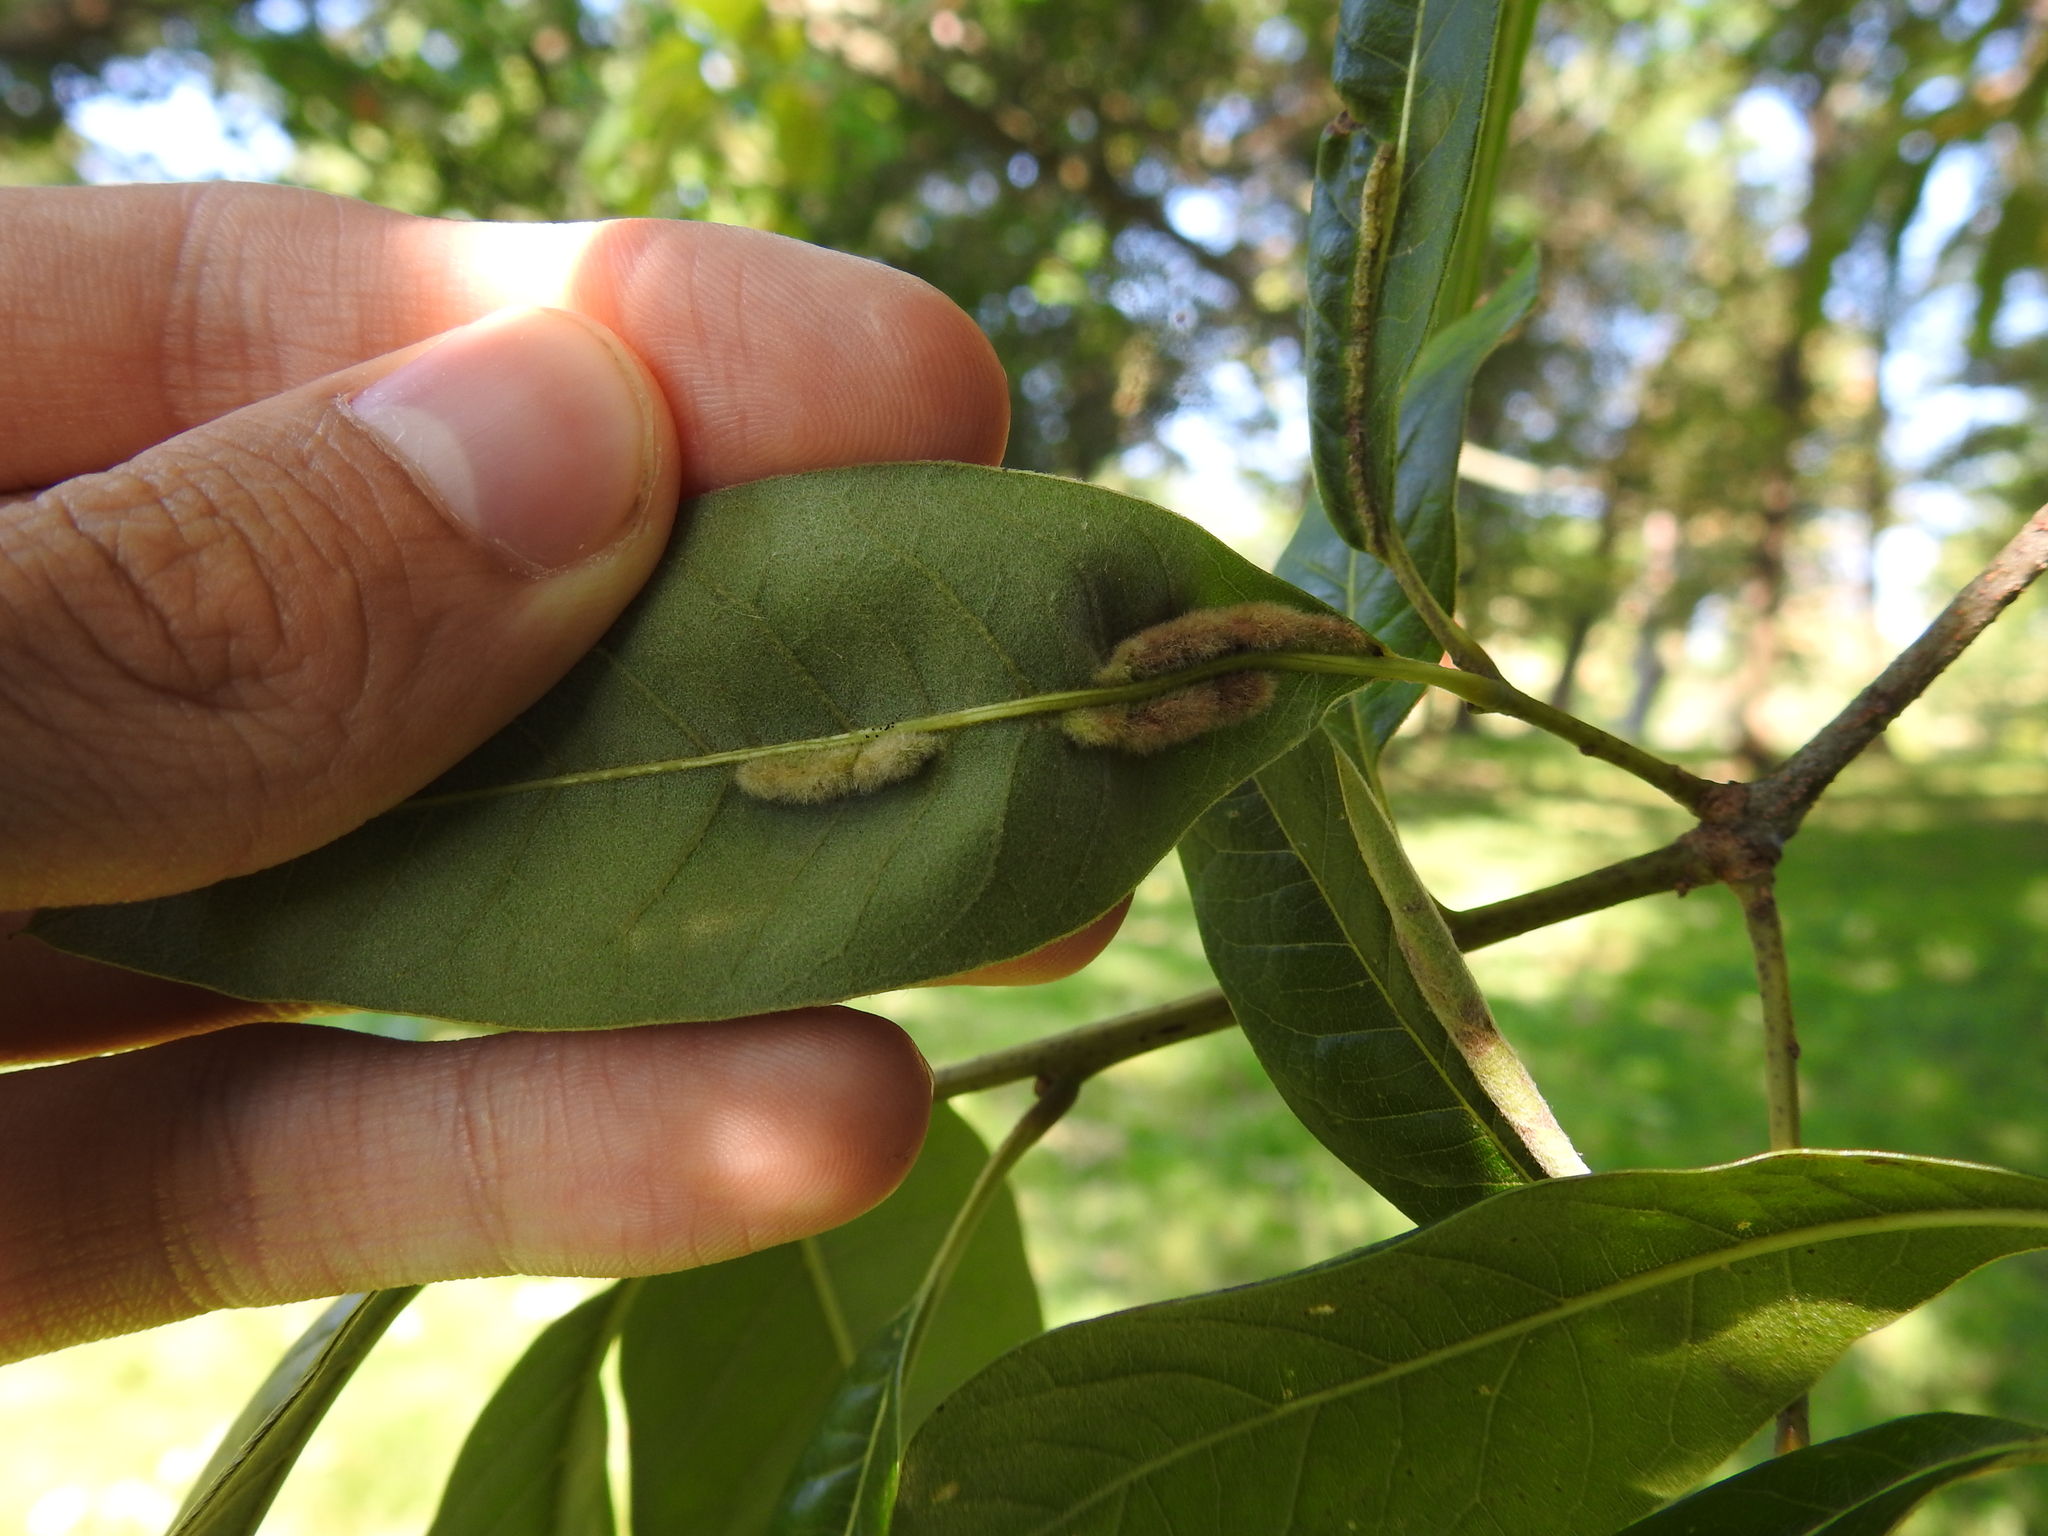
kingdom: Animalia
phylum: Arthropoda
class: Insecta
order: Diptera
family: Cecidomyiidae
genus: Macrodiplosis
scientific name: Macrodiplosis niveipila
